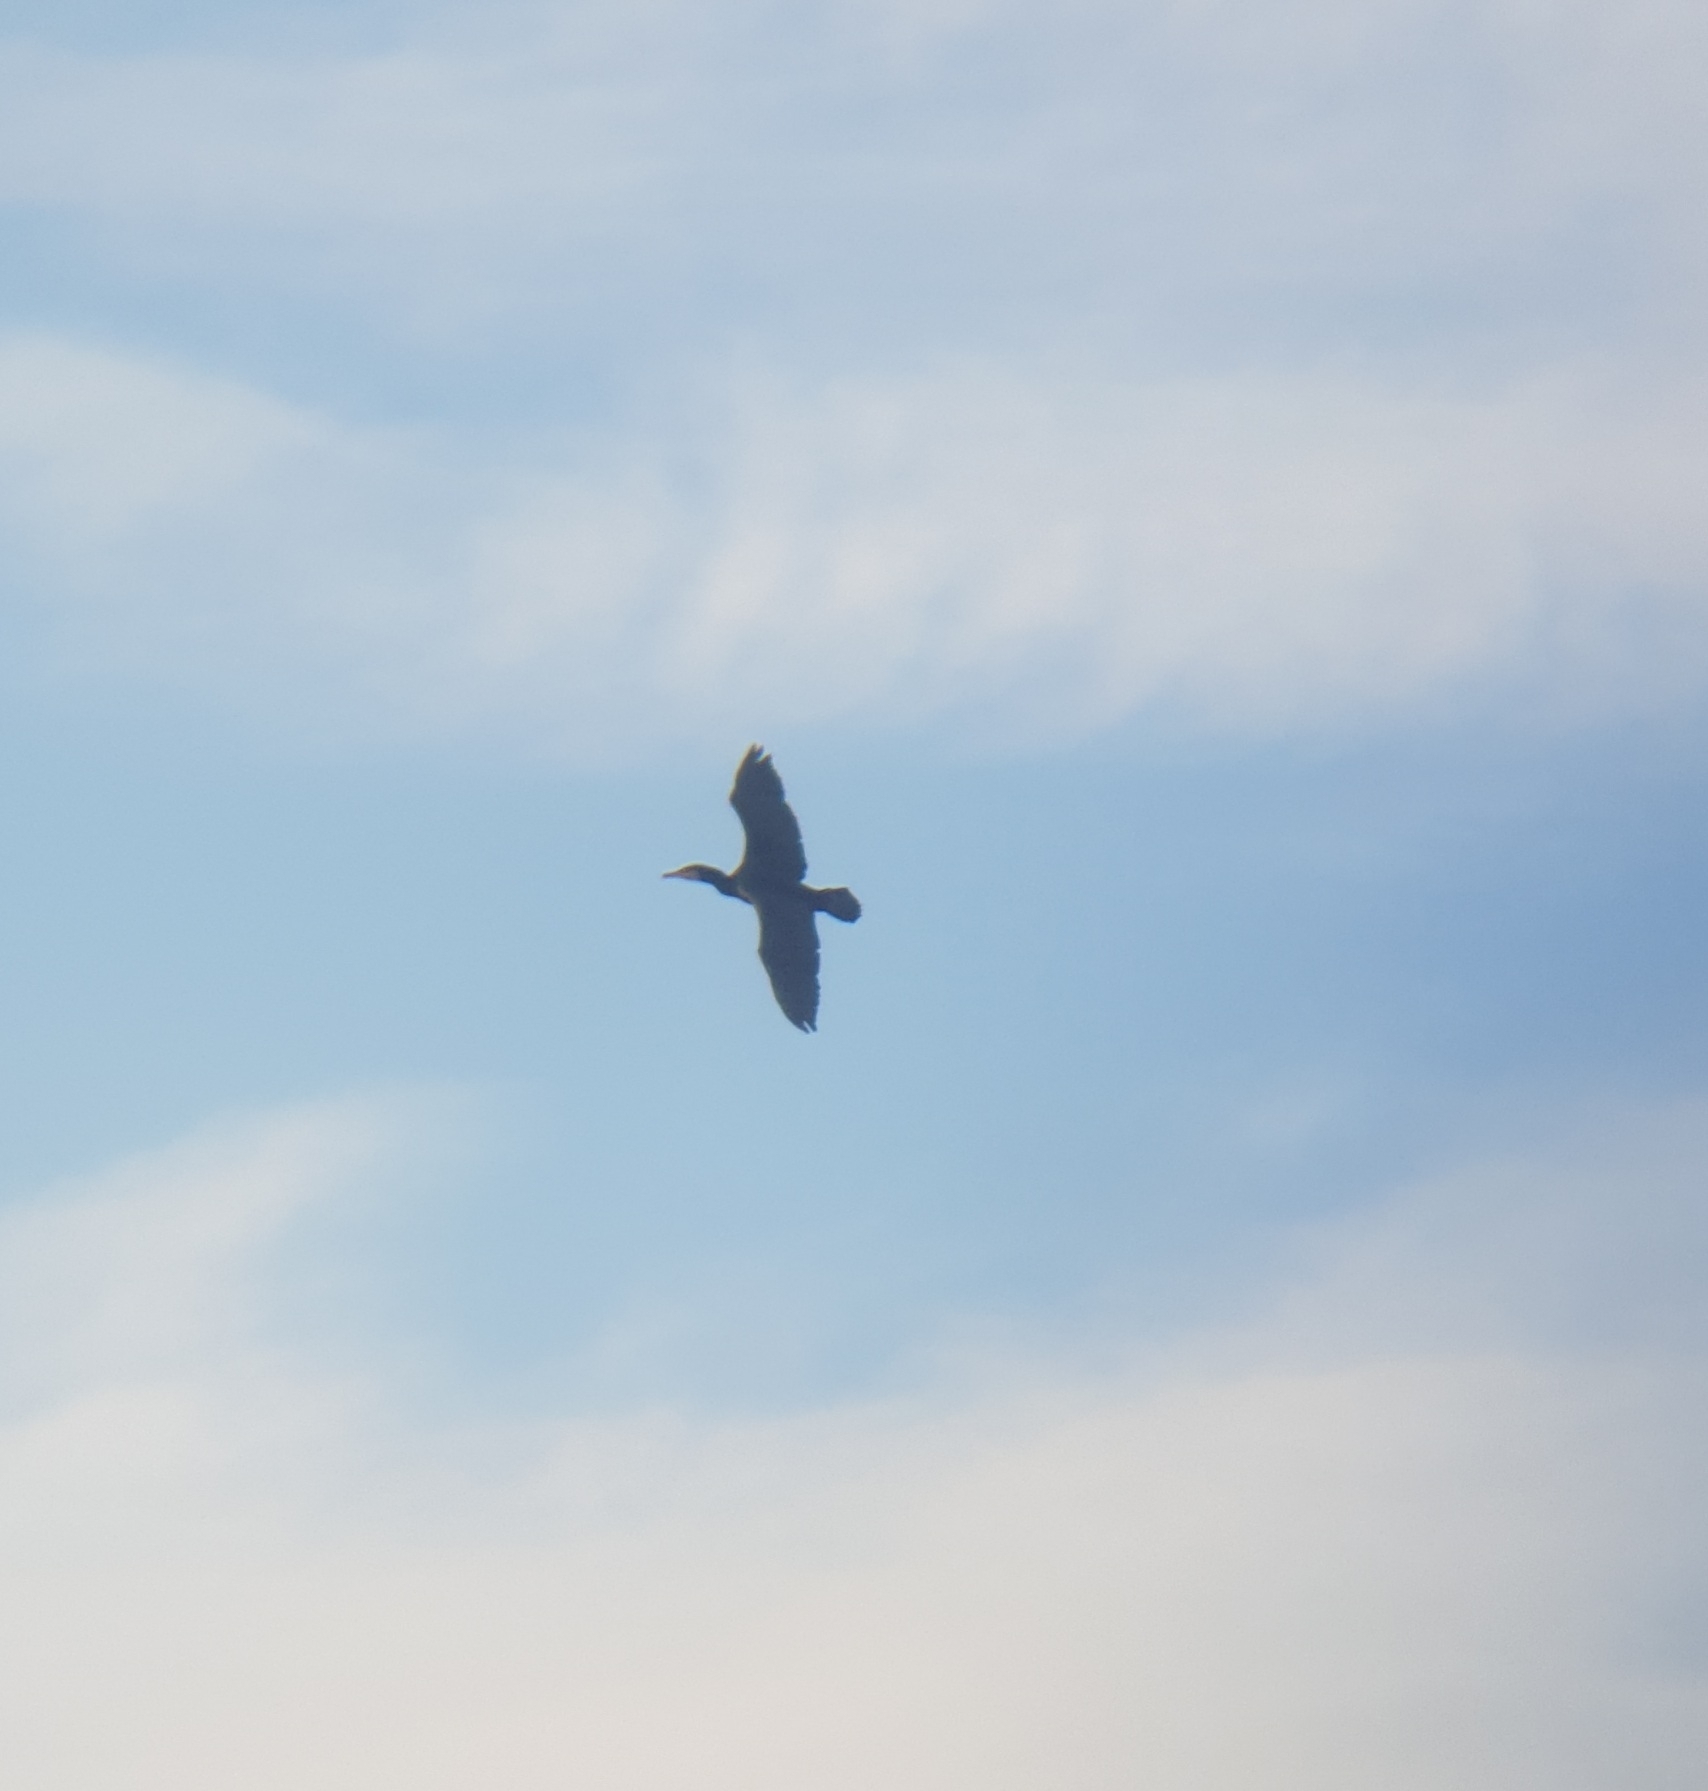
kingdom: Animalia
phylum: Chordata
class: Aves
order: Suliformes
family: Phalacrocoracidae
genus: Phalacrocorax
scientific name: Phalacrocorax carbo
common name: Great cormorant
